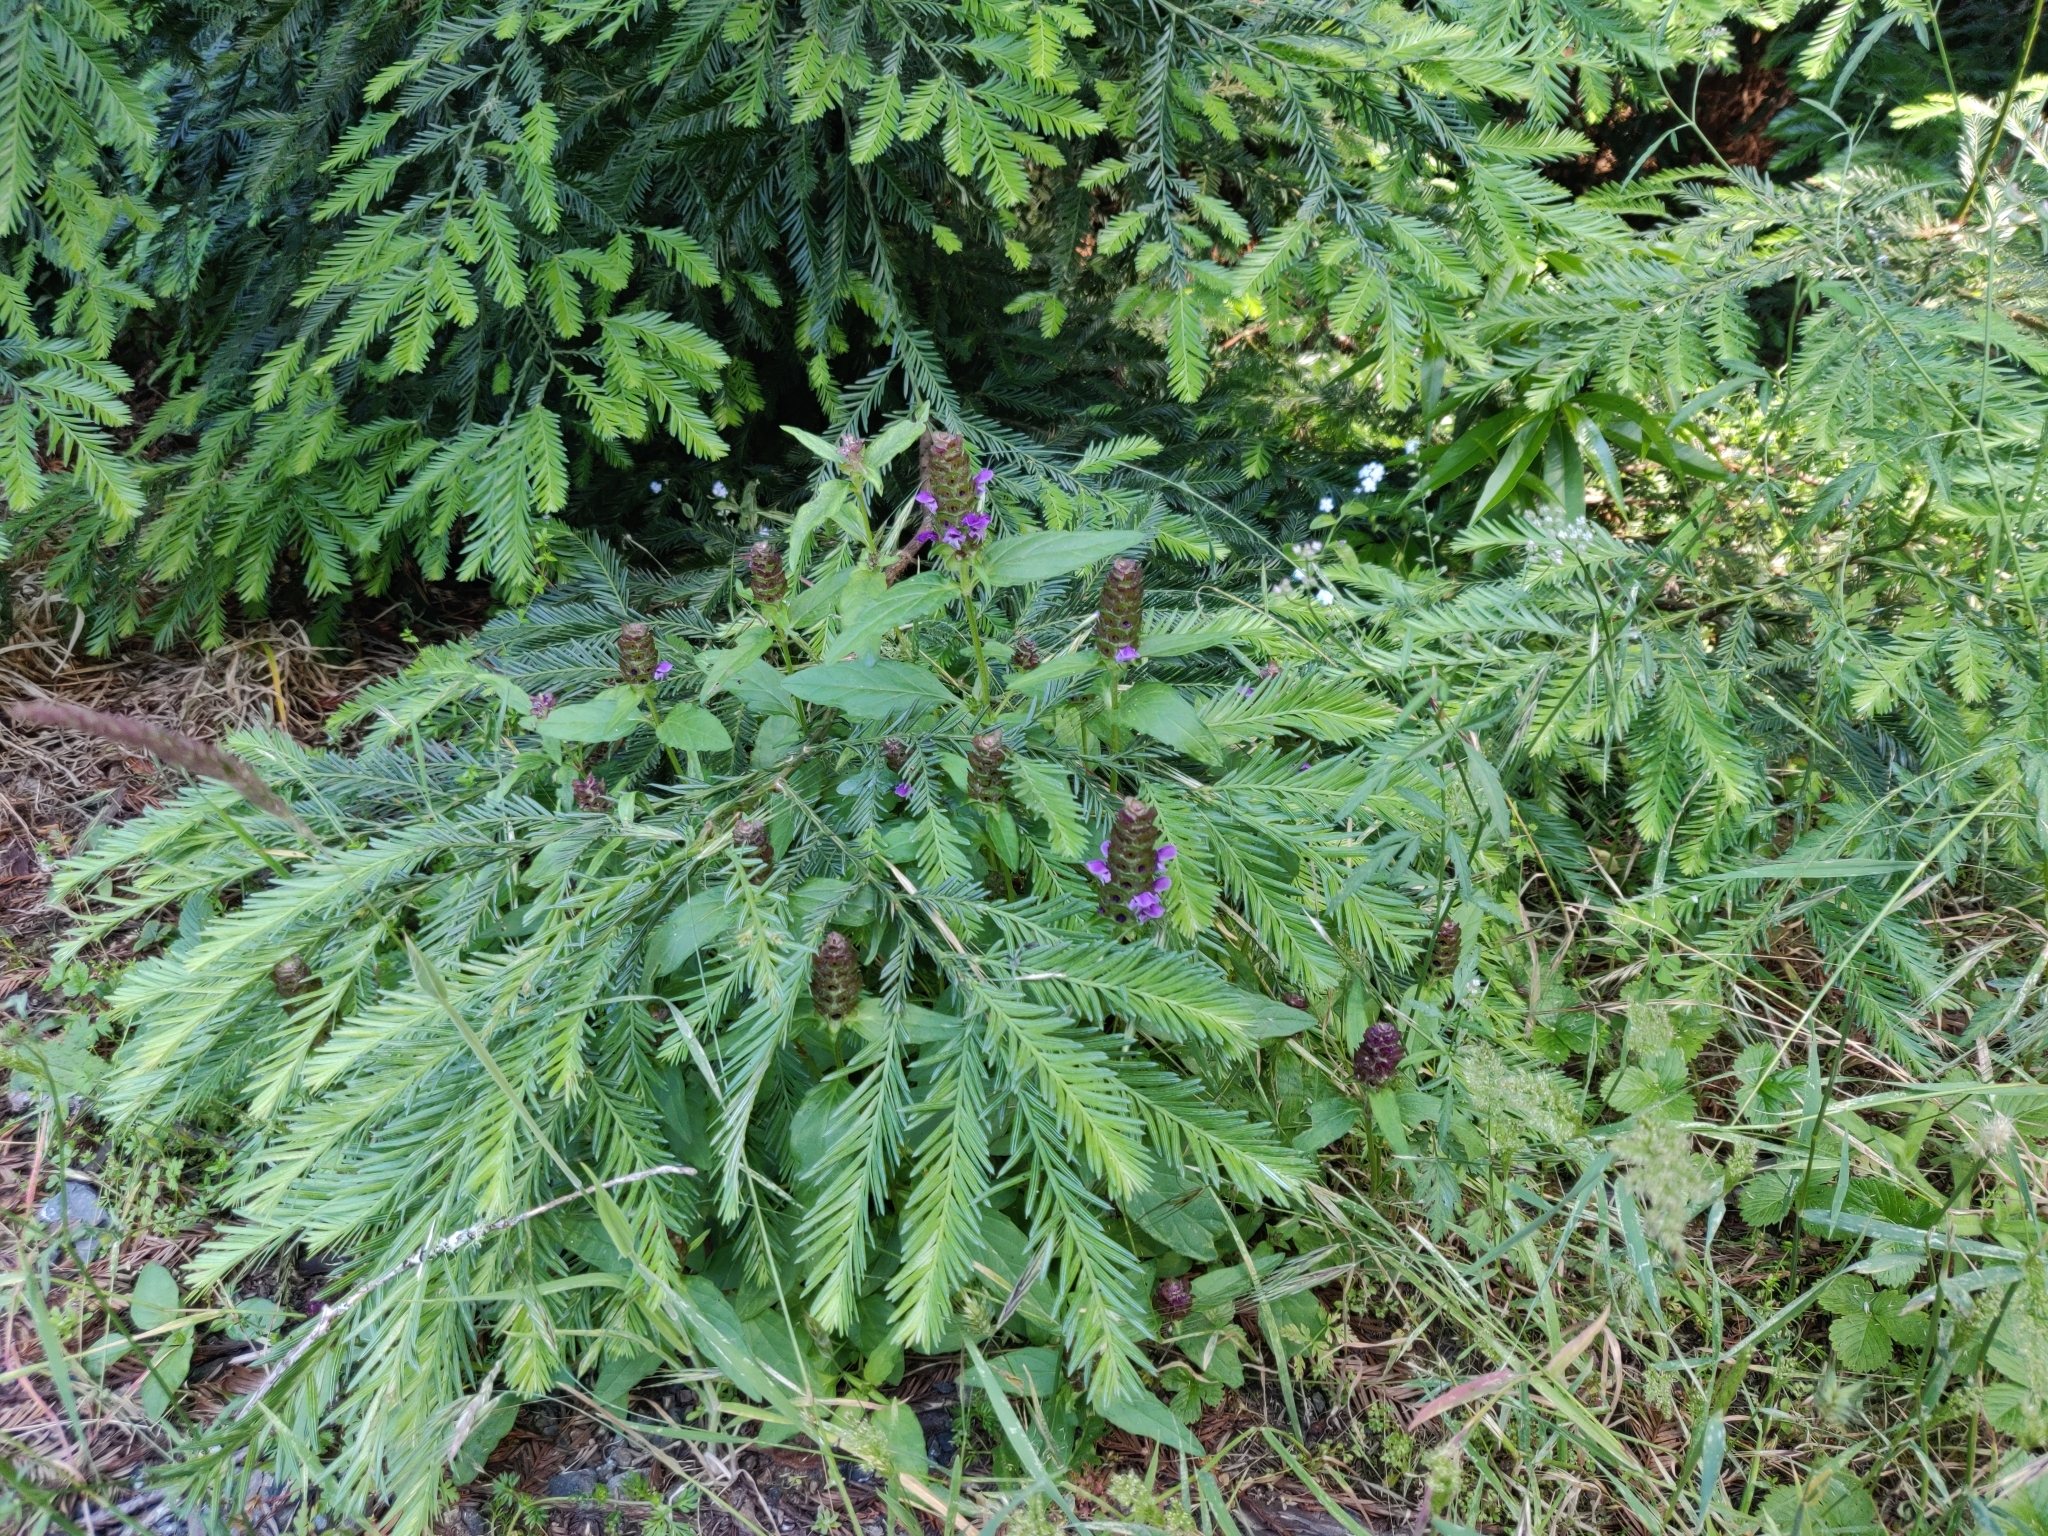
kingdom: Plantae
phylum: Tracheophyta
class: Magnoliopsida
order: Lamiales
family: Lamiaceae
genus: Prunella
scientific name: Prunella vulgaris
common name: Heal-all
